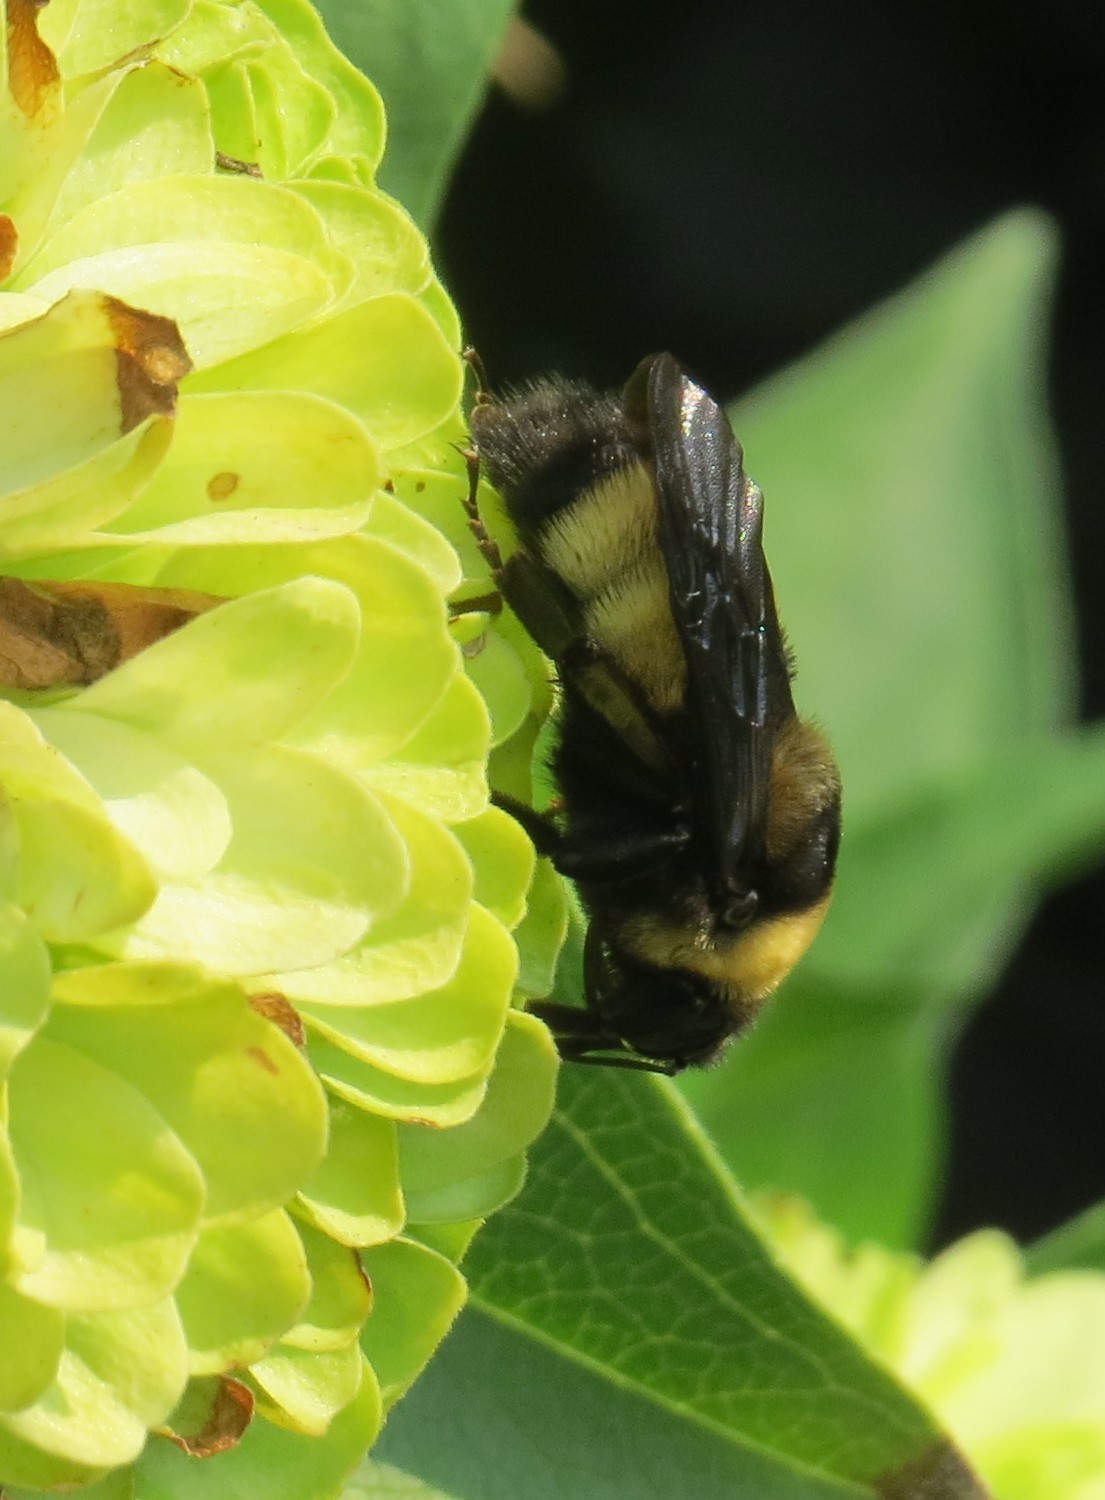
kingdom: Animalia
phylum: Arthropoda
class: Insecta
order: Hymenoptera
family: Apidae
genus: Bombus
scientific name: Bombus auricomus
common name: Black and gold bumble bee
